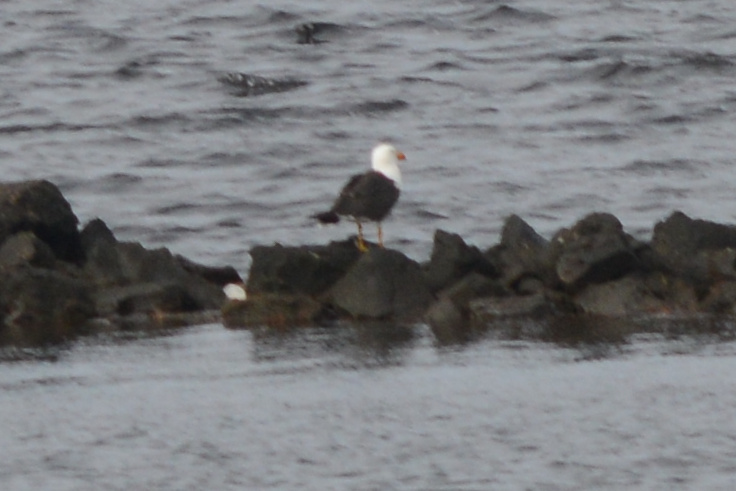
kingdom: Animalia
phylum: Chordata
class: Aves
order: Charadriiformes
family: Laridae
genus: Larus
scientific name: Larus pacificus
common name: Pacific gull
